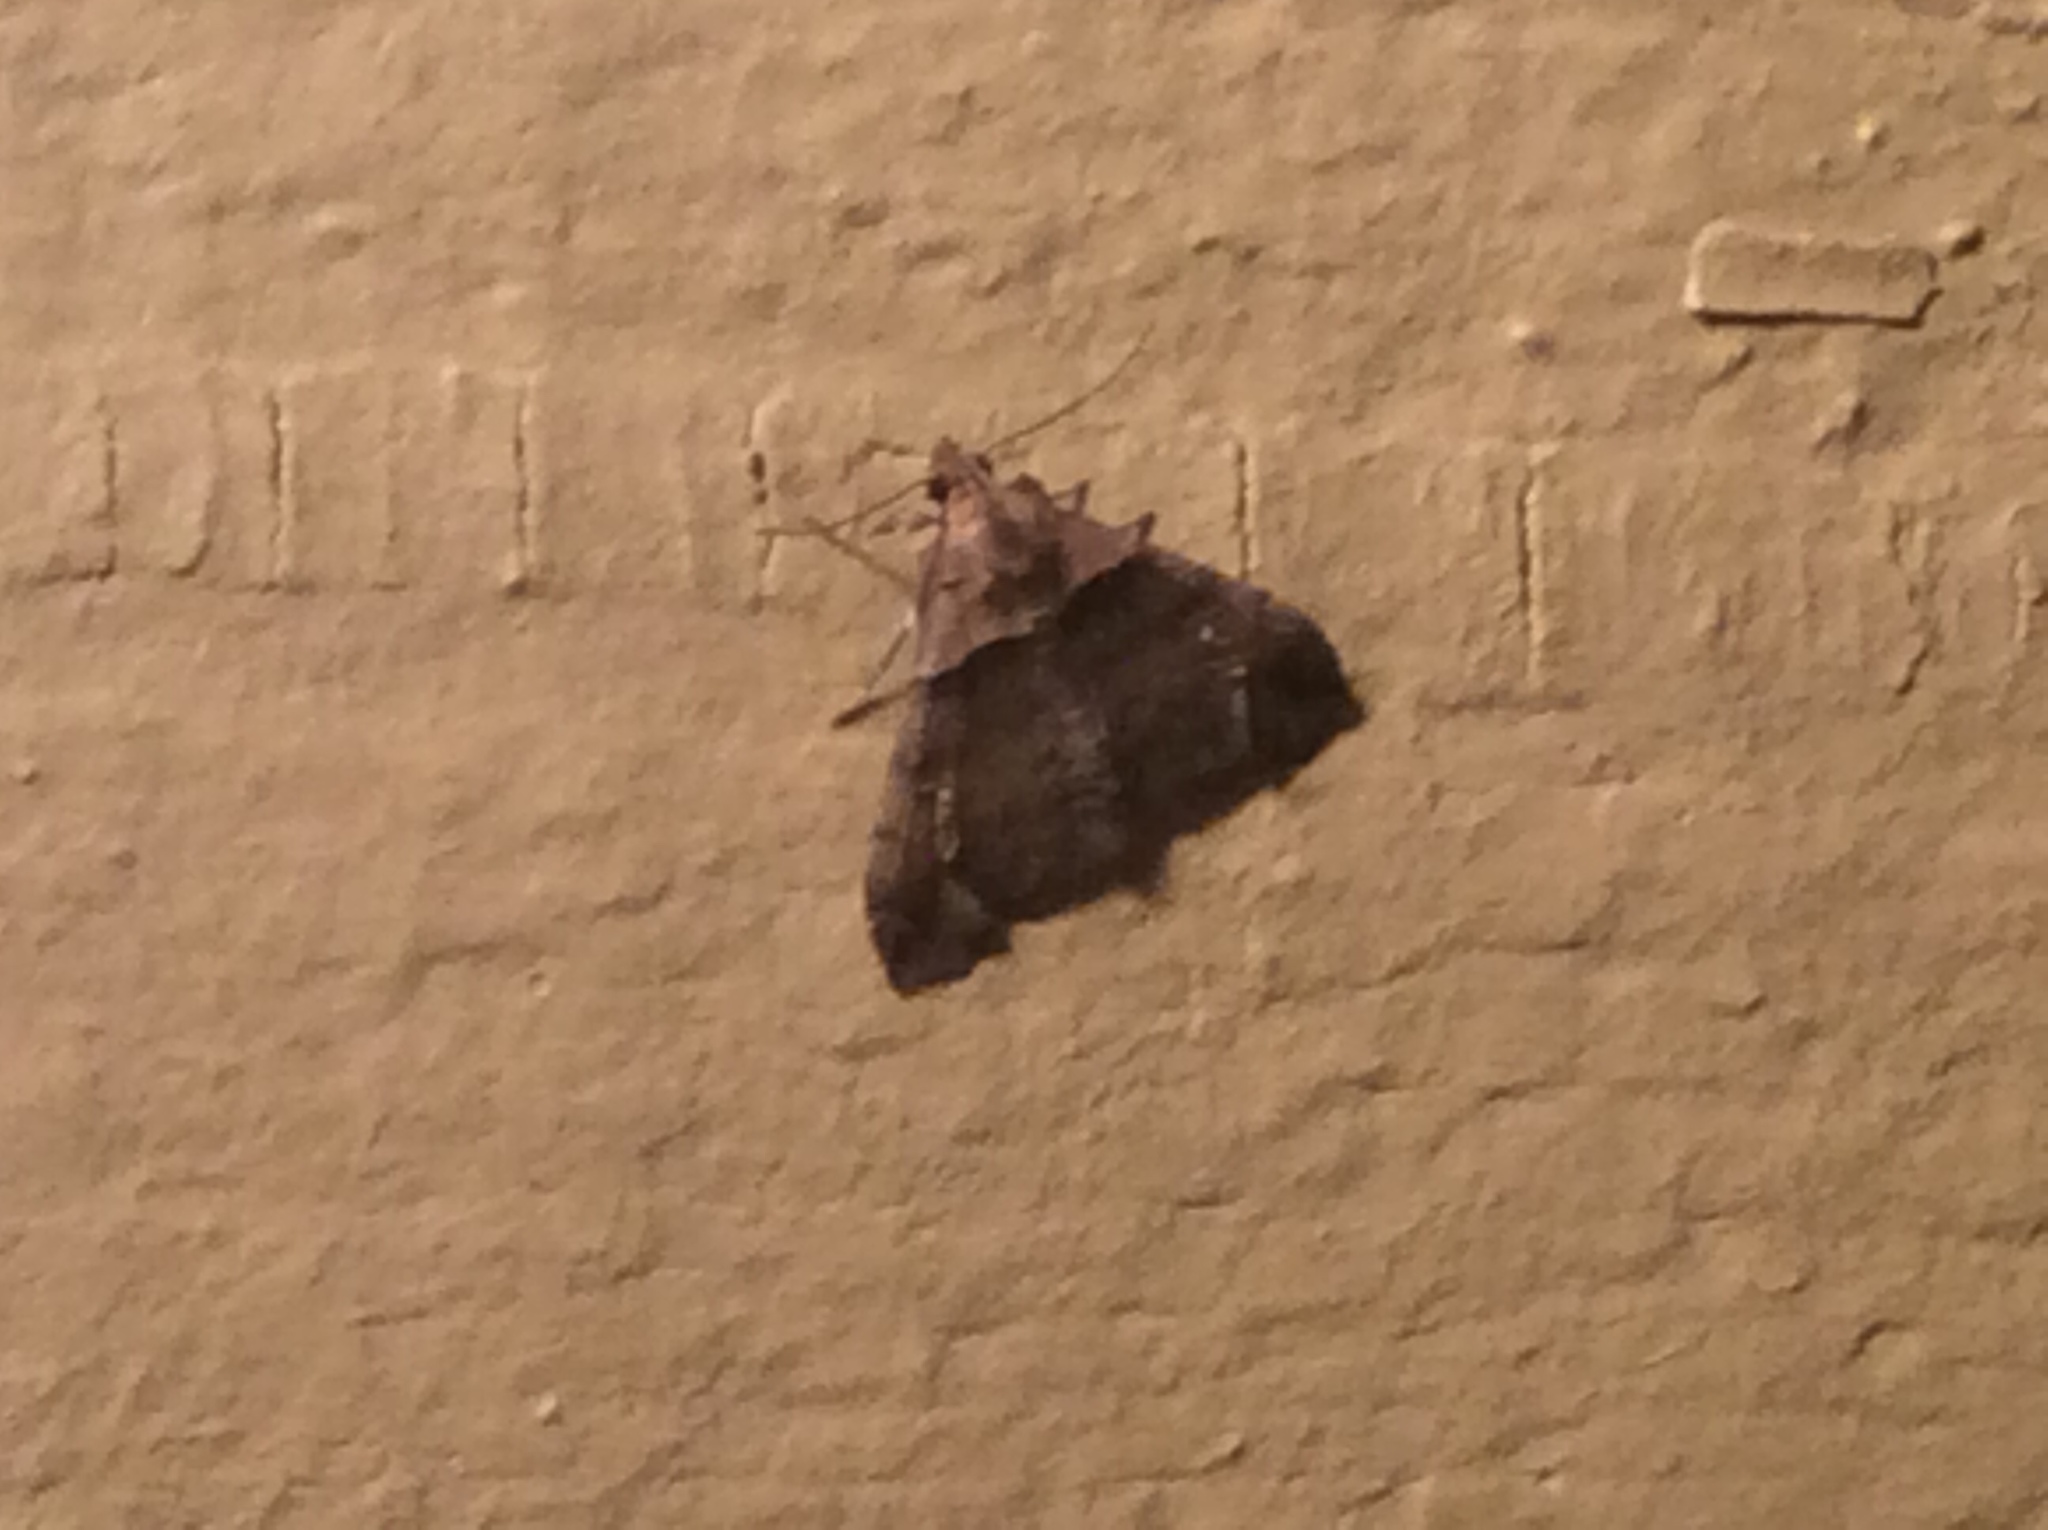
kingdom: Animalia
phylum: Arthropoda
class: Insecta
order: Lepidoptera
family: Erebidae
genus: Lascoria
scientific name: Lascoria ambigualis
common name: Ambiguous moth
